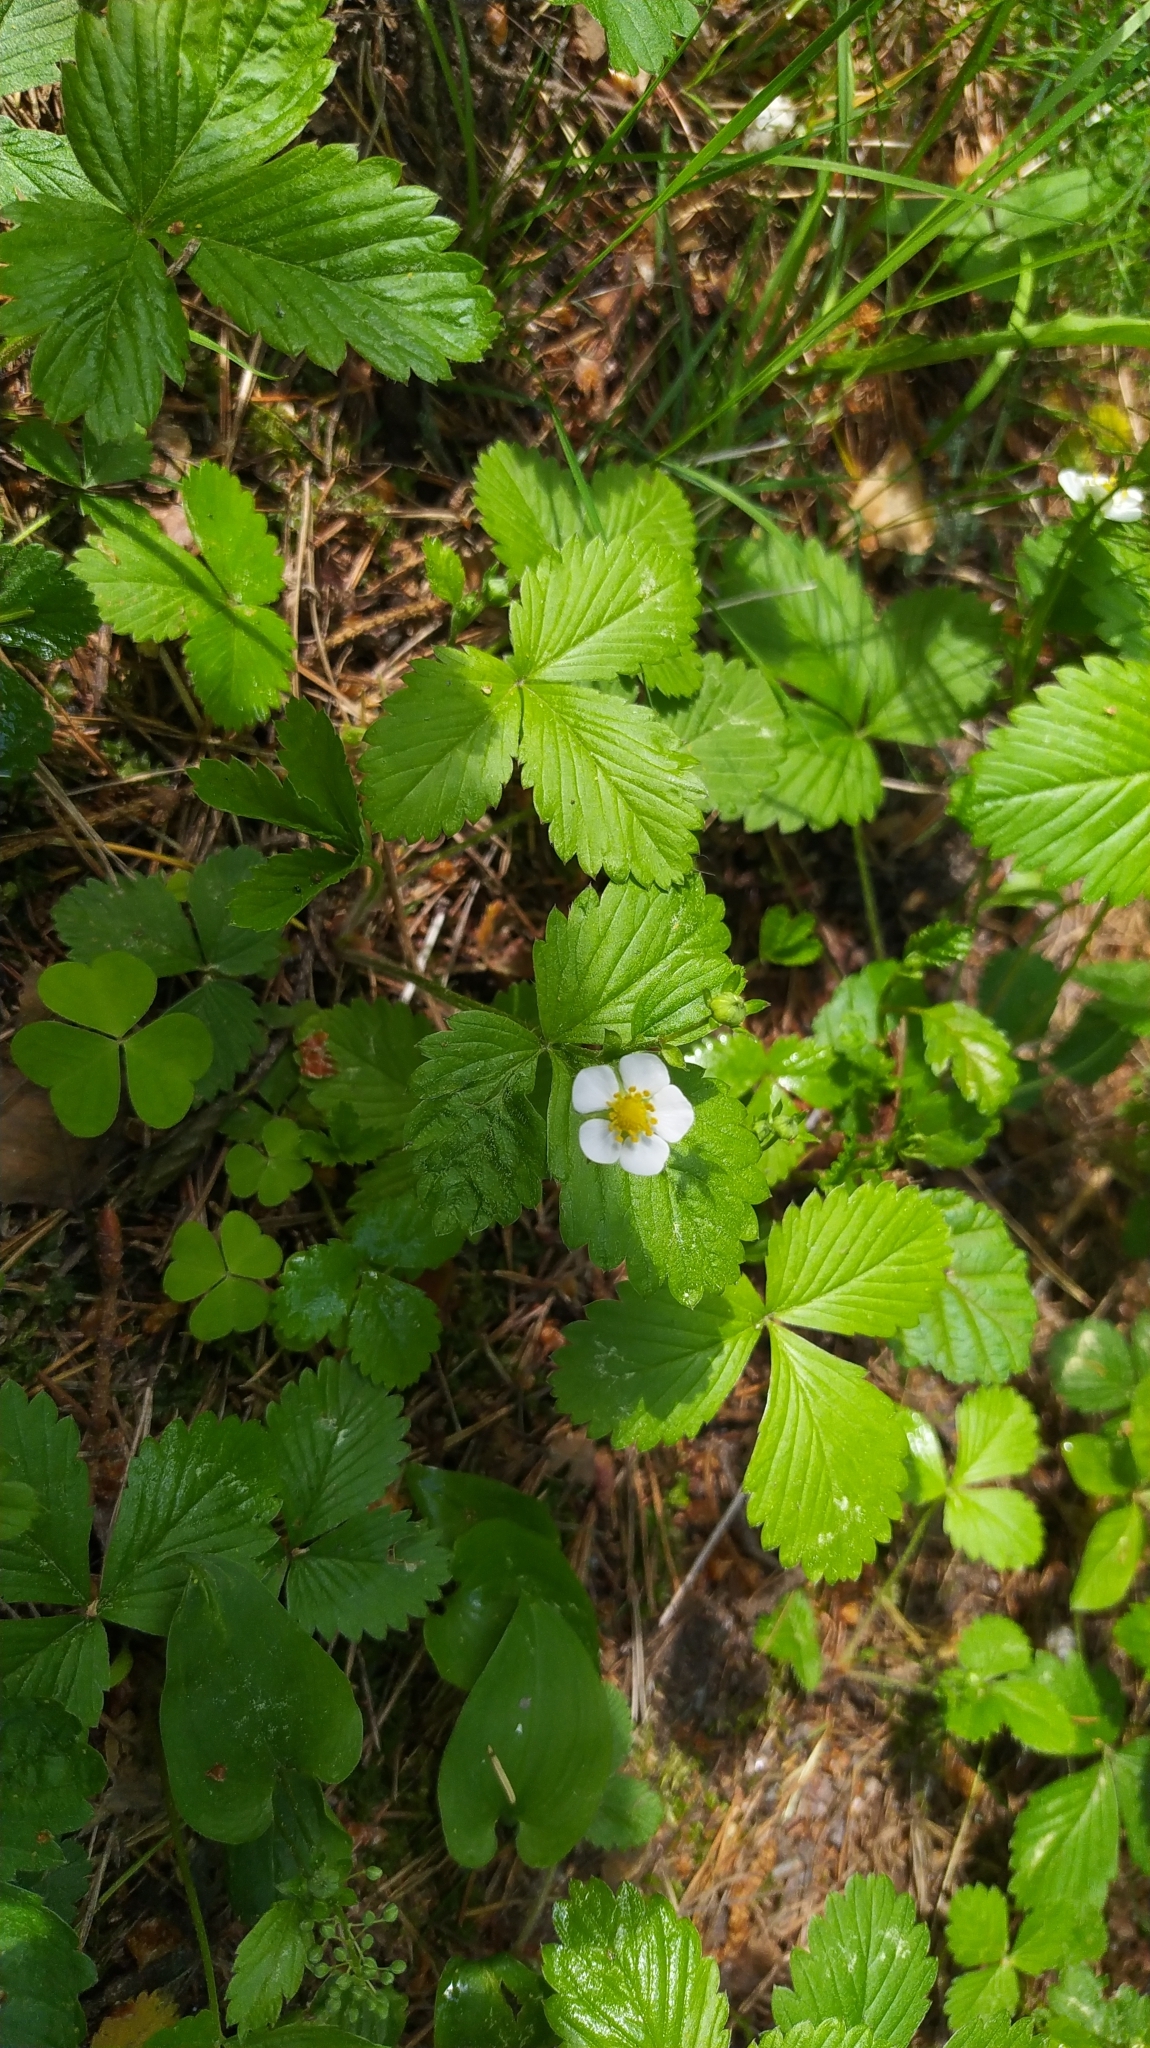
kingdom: Plantae
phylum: Tracheophyta
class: Magnoliopsida
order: Rosales
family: Rosaceae
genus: Fragaria
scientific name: Fragaria vesca
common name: Wild strawberry
